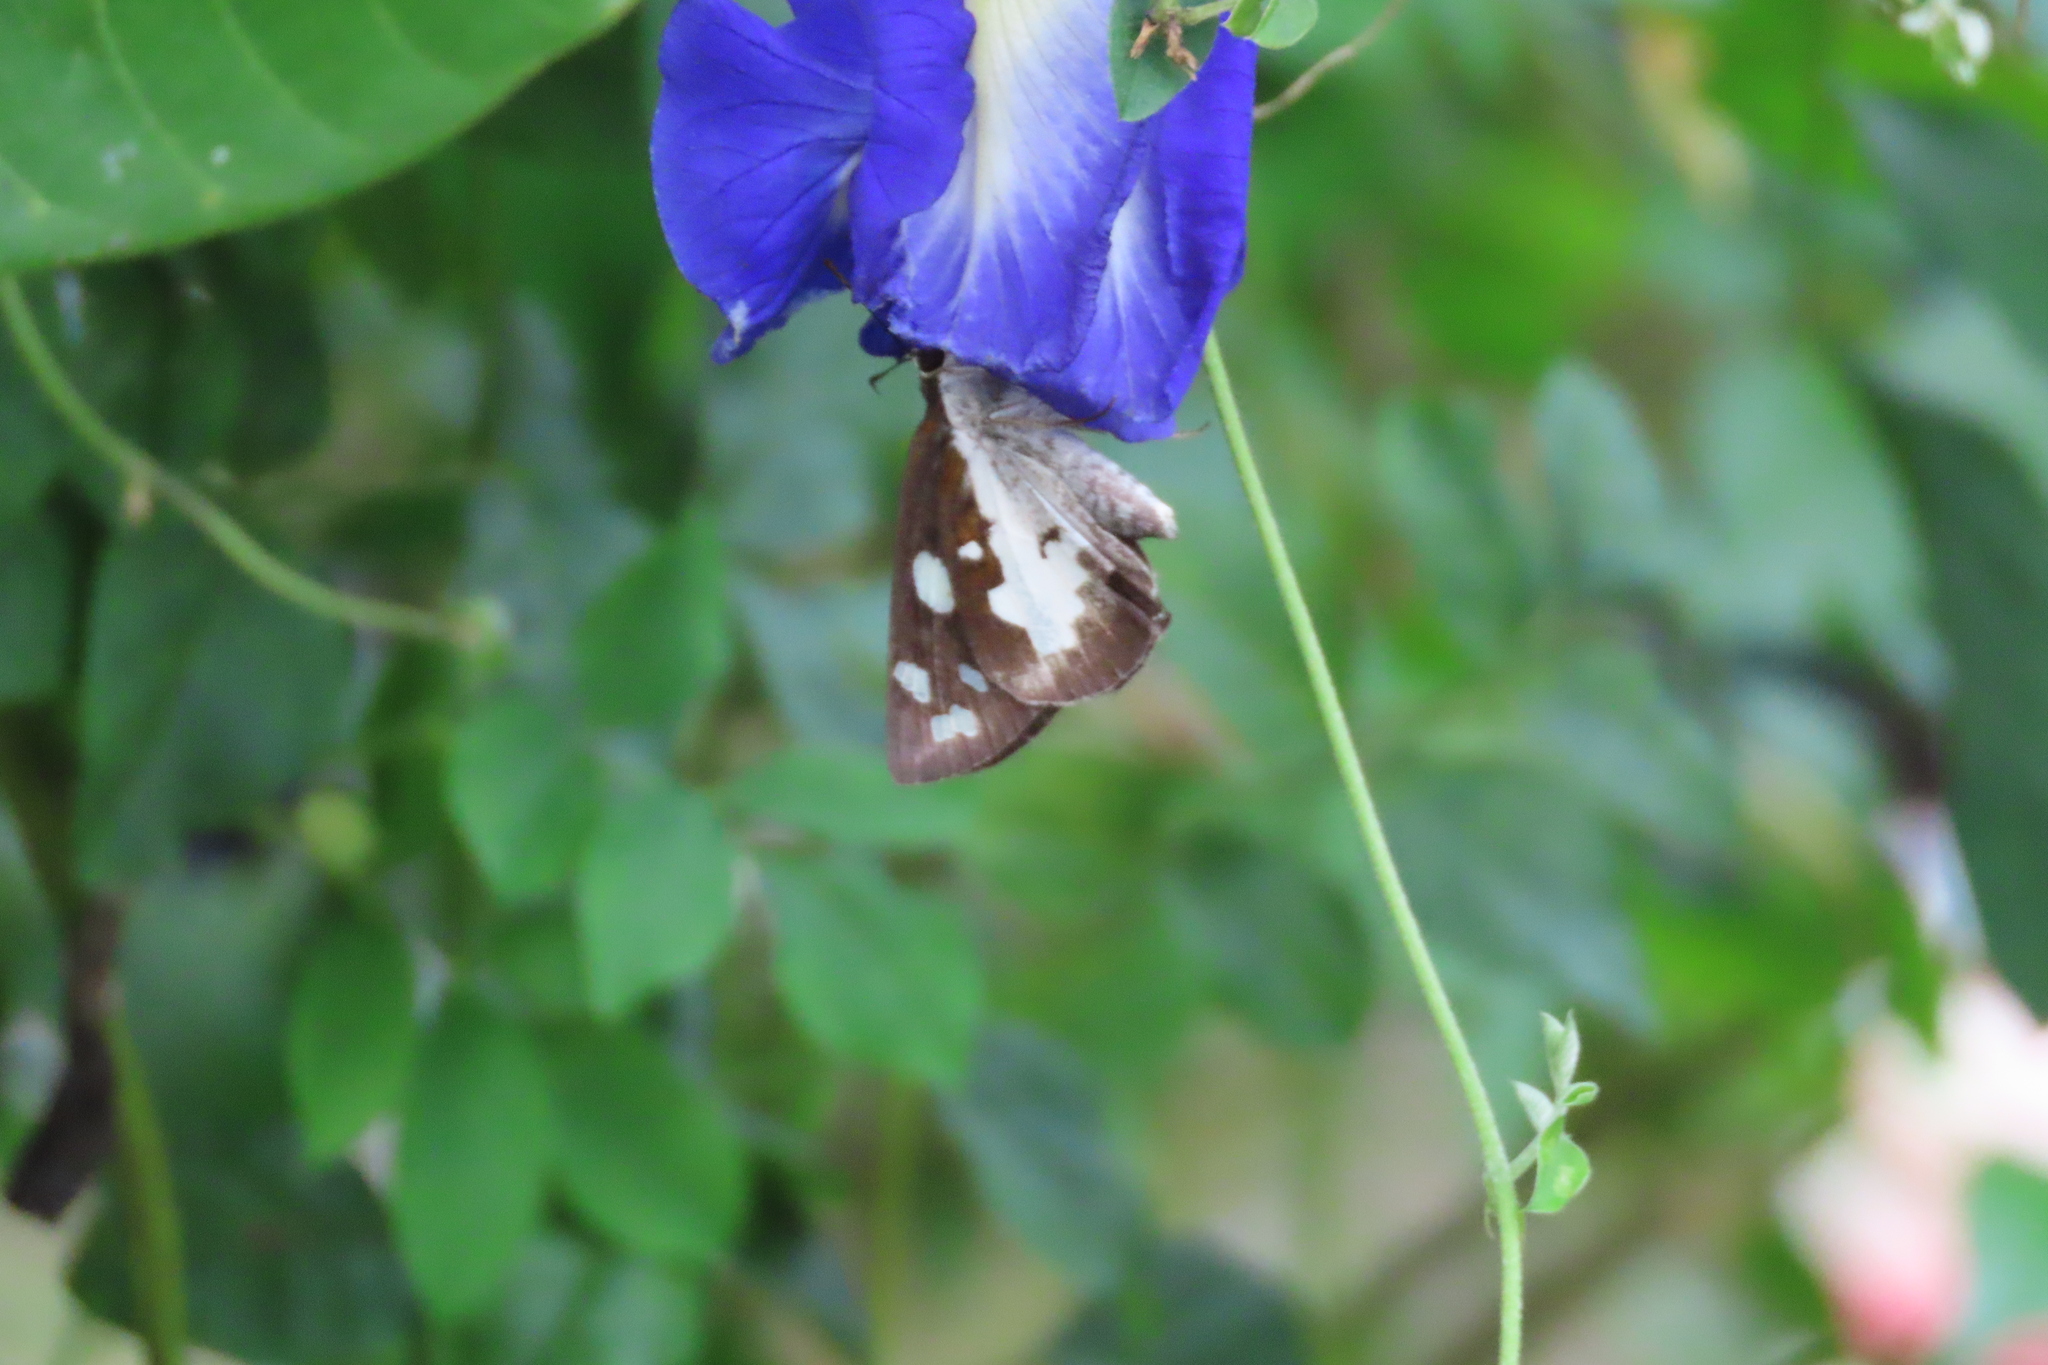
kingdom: Animalia
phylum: Arthropoda
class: Insecta
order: Lepidoptera
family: Hesperiidae
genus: Udaspes
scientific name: Udaspes folus
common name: Grass demon
